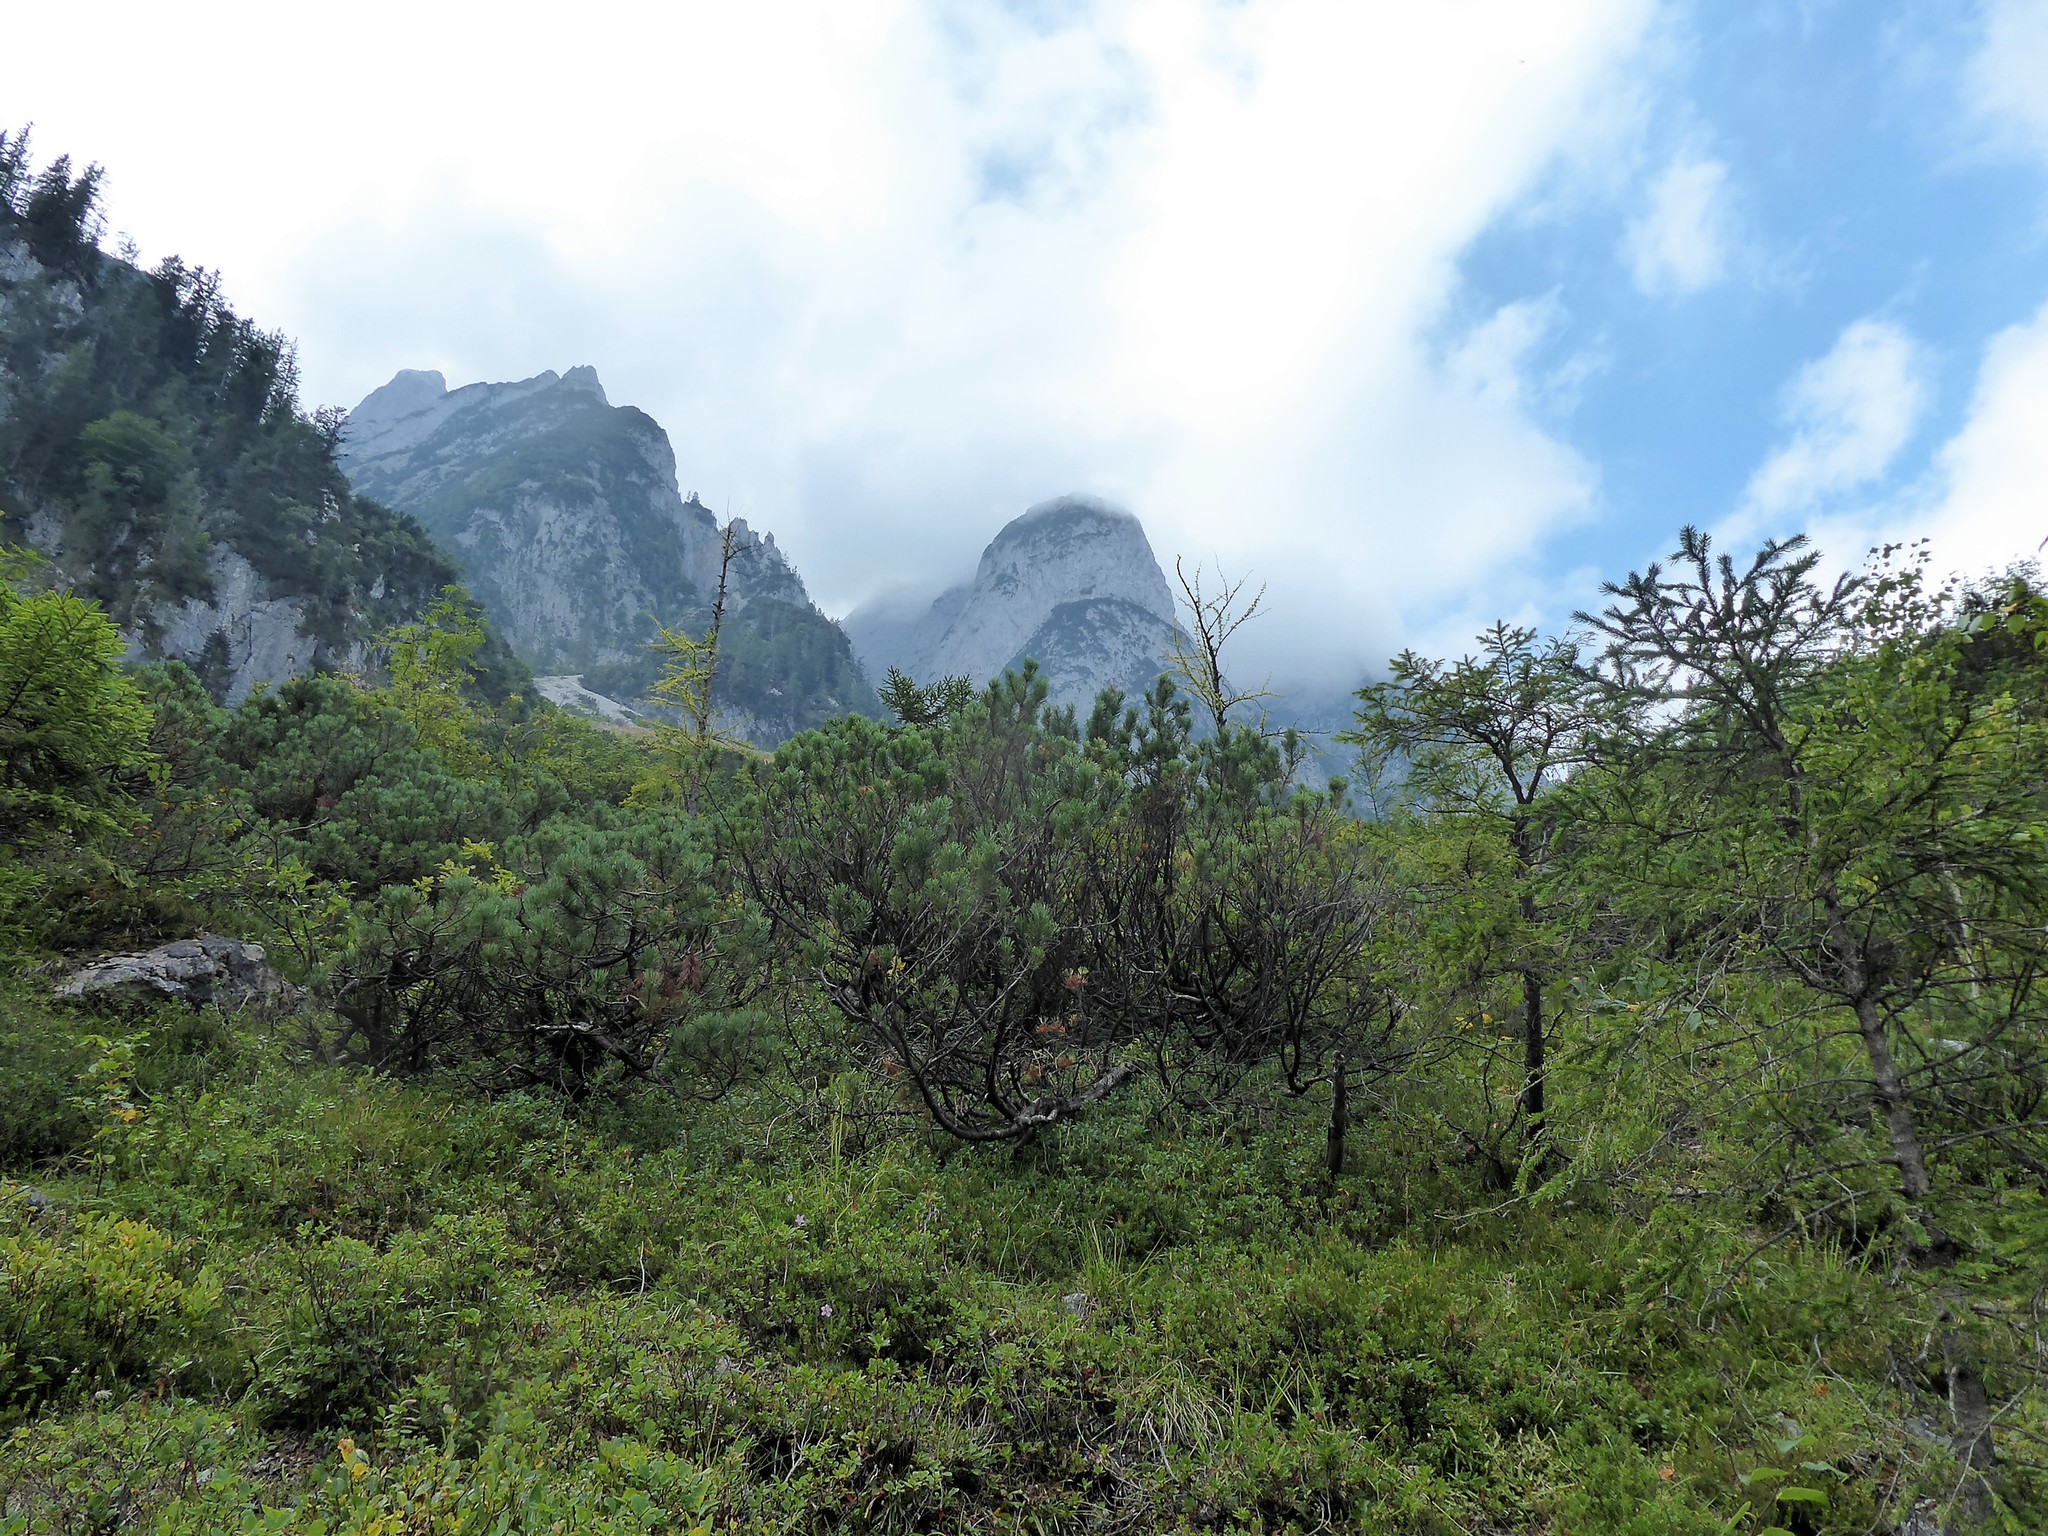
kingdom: Plantae
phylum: Tracheophyta
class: Pinopsida
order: Pinales
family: Pinaceae
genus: Pinus
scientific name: Pinus mugo
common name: Mugo pine
